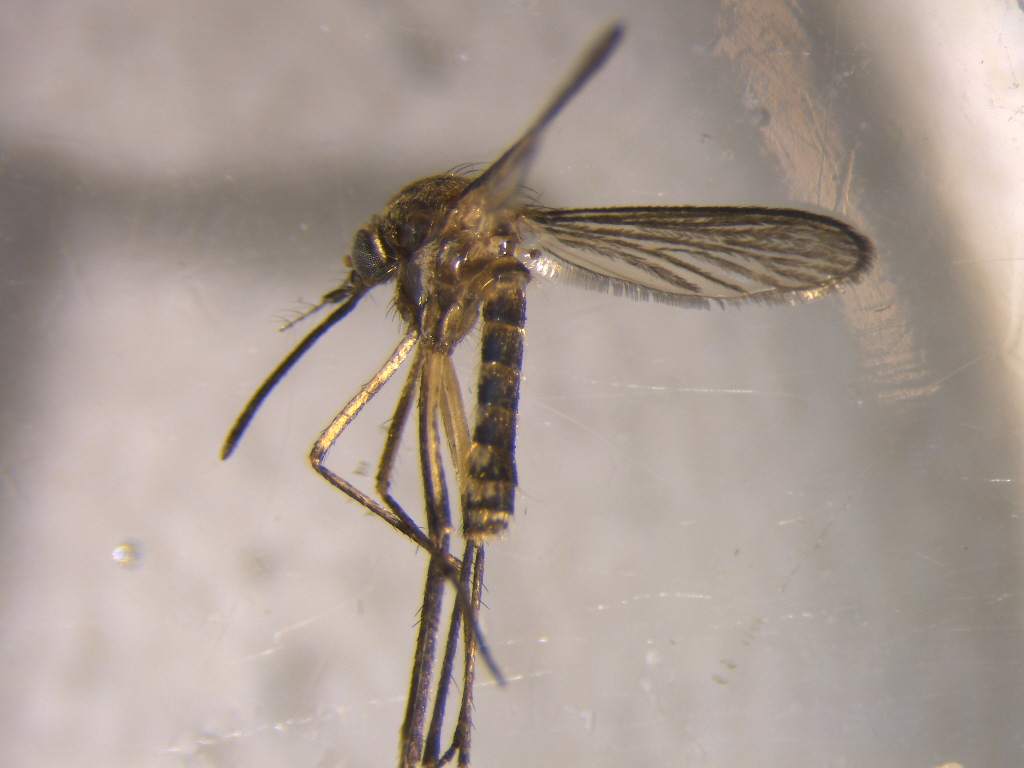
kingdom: Animalia
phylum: Arthropoda
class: Insecta
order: Diptera
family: Culicidae
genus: Coquillettidia
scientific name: Coquillettidia iracunda
